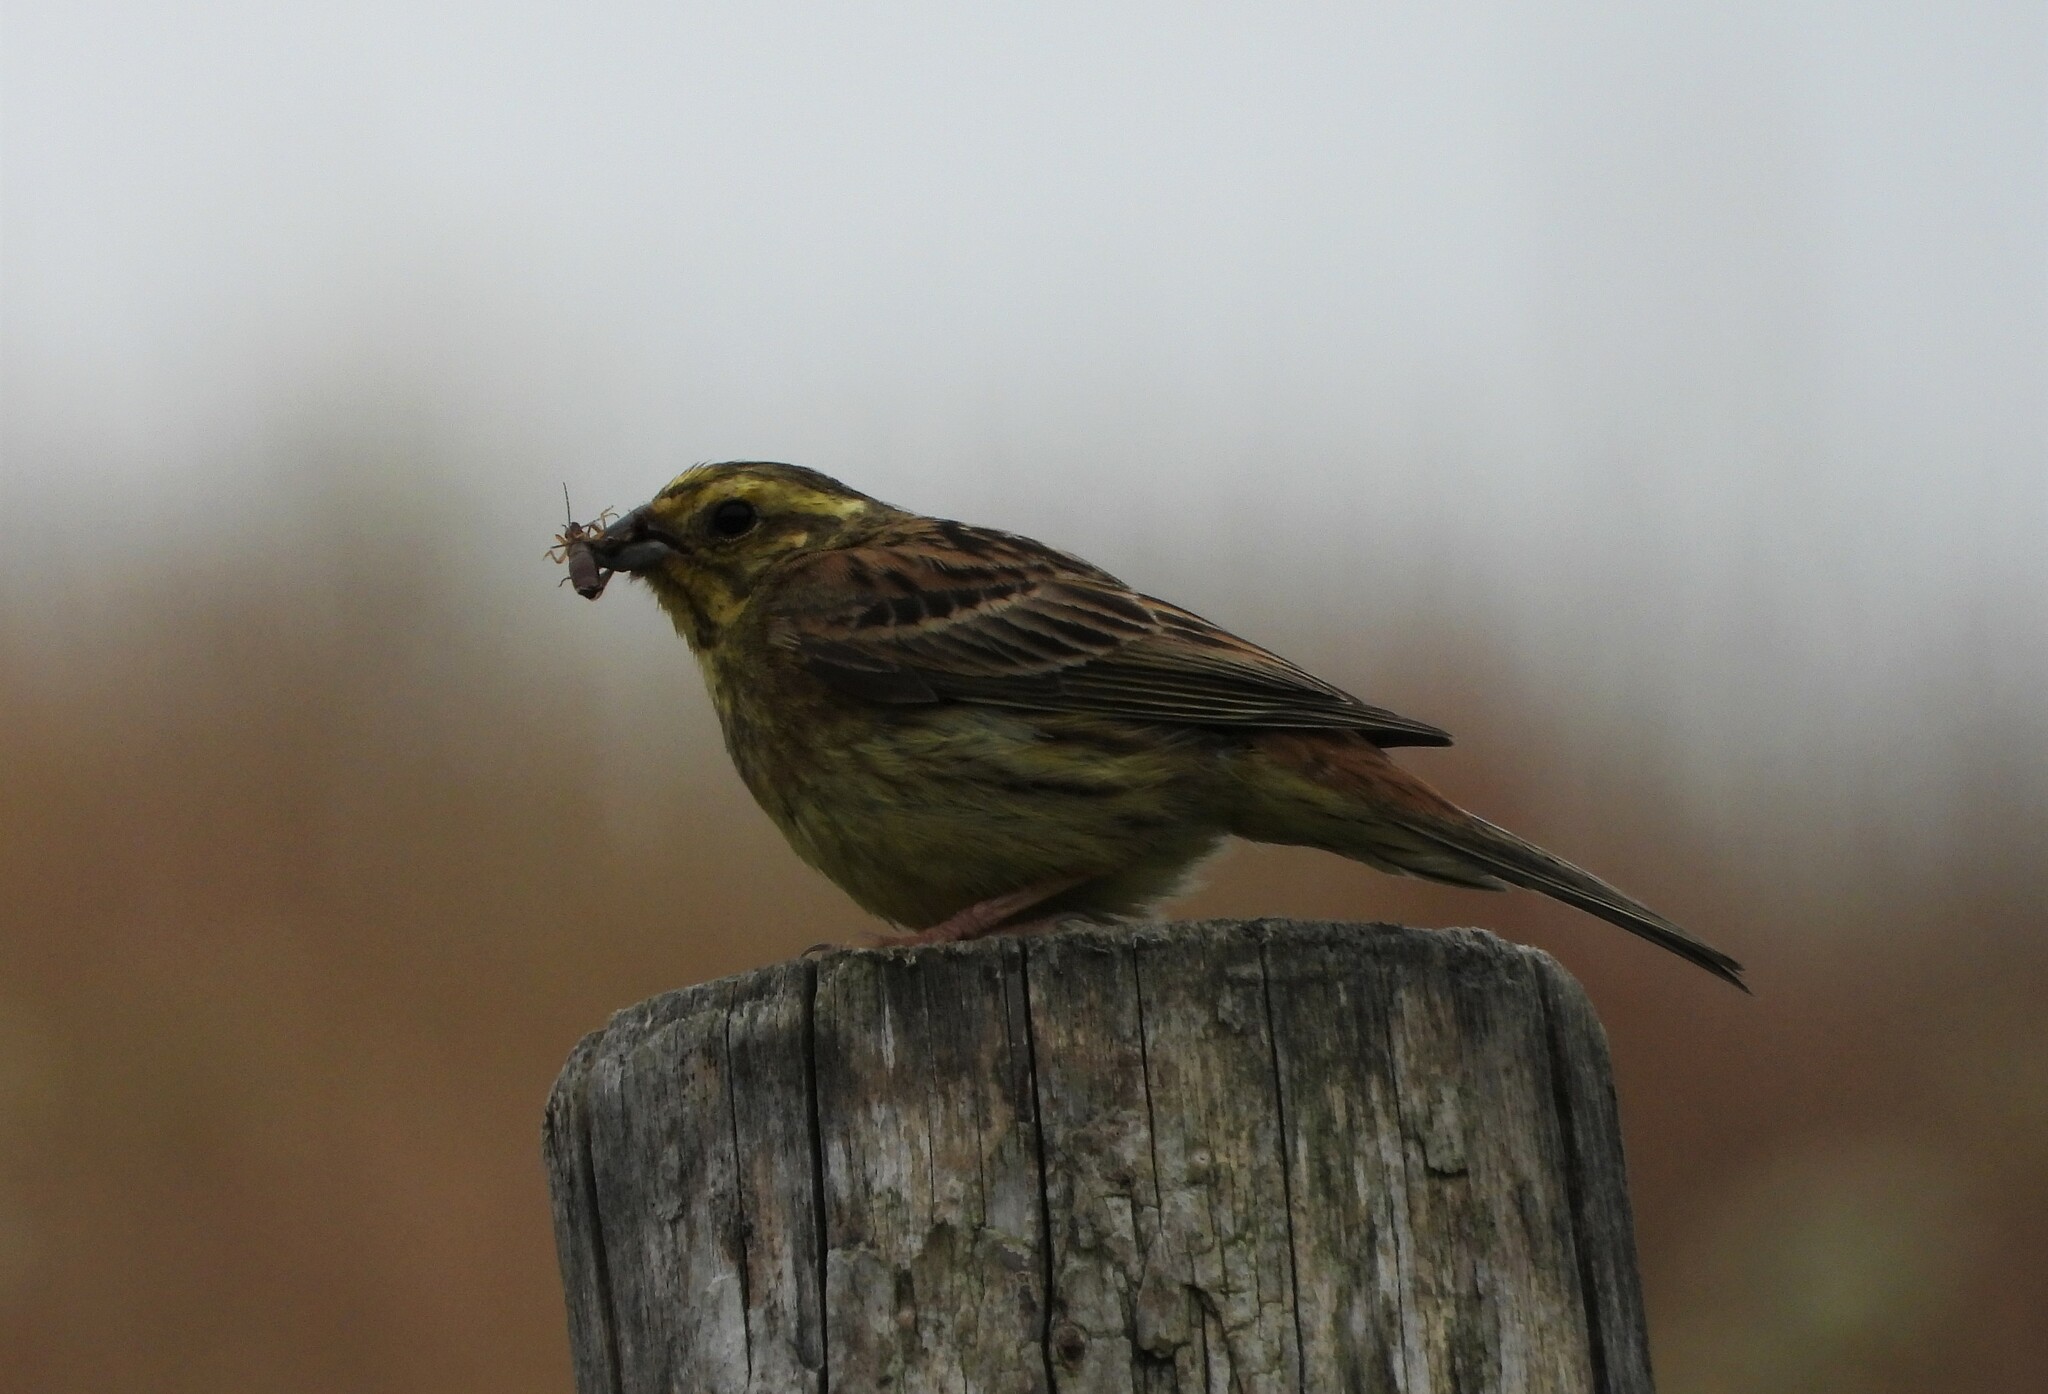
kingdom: Animalia
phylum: Chordata
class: Aves
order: Passeriformes
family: Emberizidae
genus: Emberiza
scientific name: Emberiza citrinella
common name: Yellowhammer
